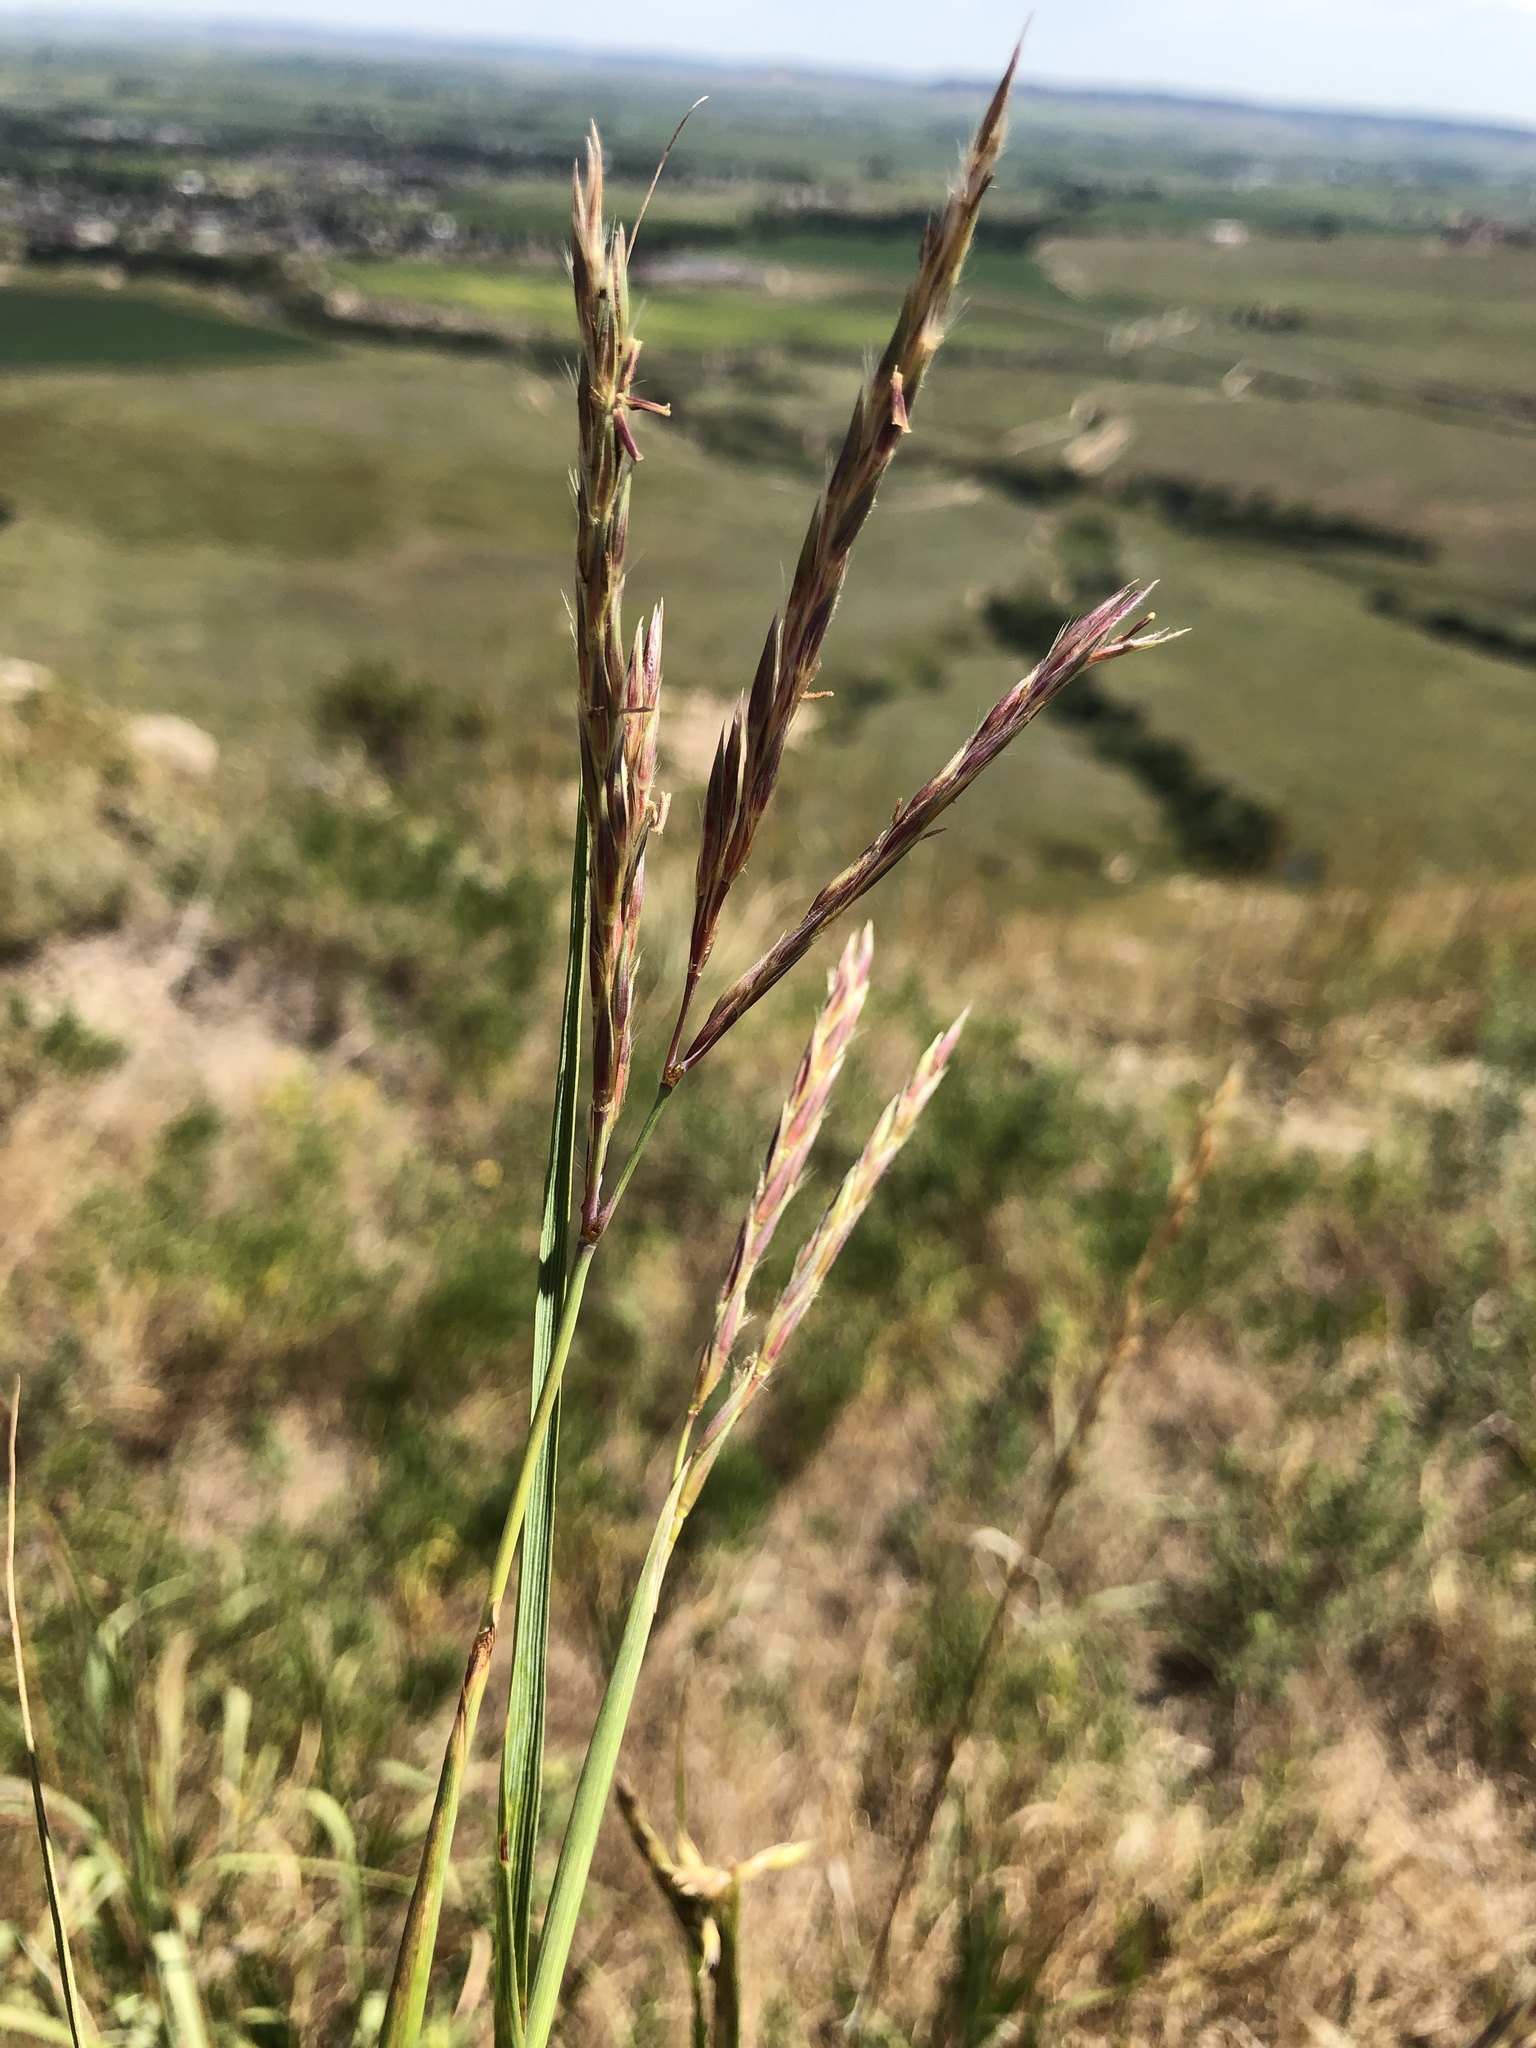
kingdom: Plantae
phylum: Tracheophyta
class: Liliopsida
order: Poales
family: Poaceae
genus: Andropogon
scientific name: Andropogon hallii
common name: Sand bluestem
